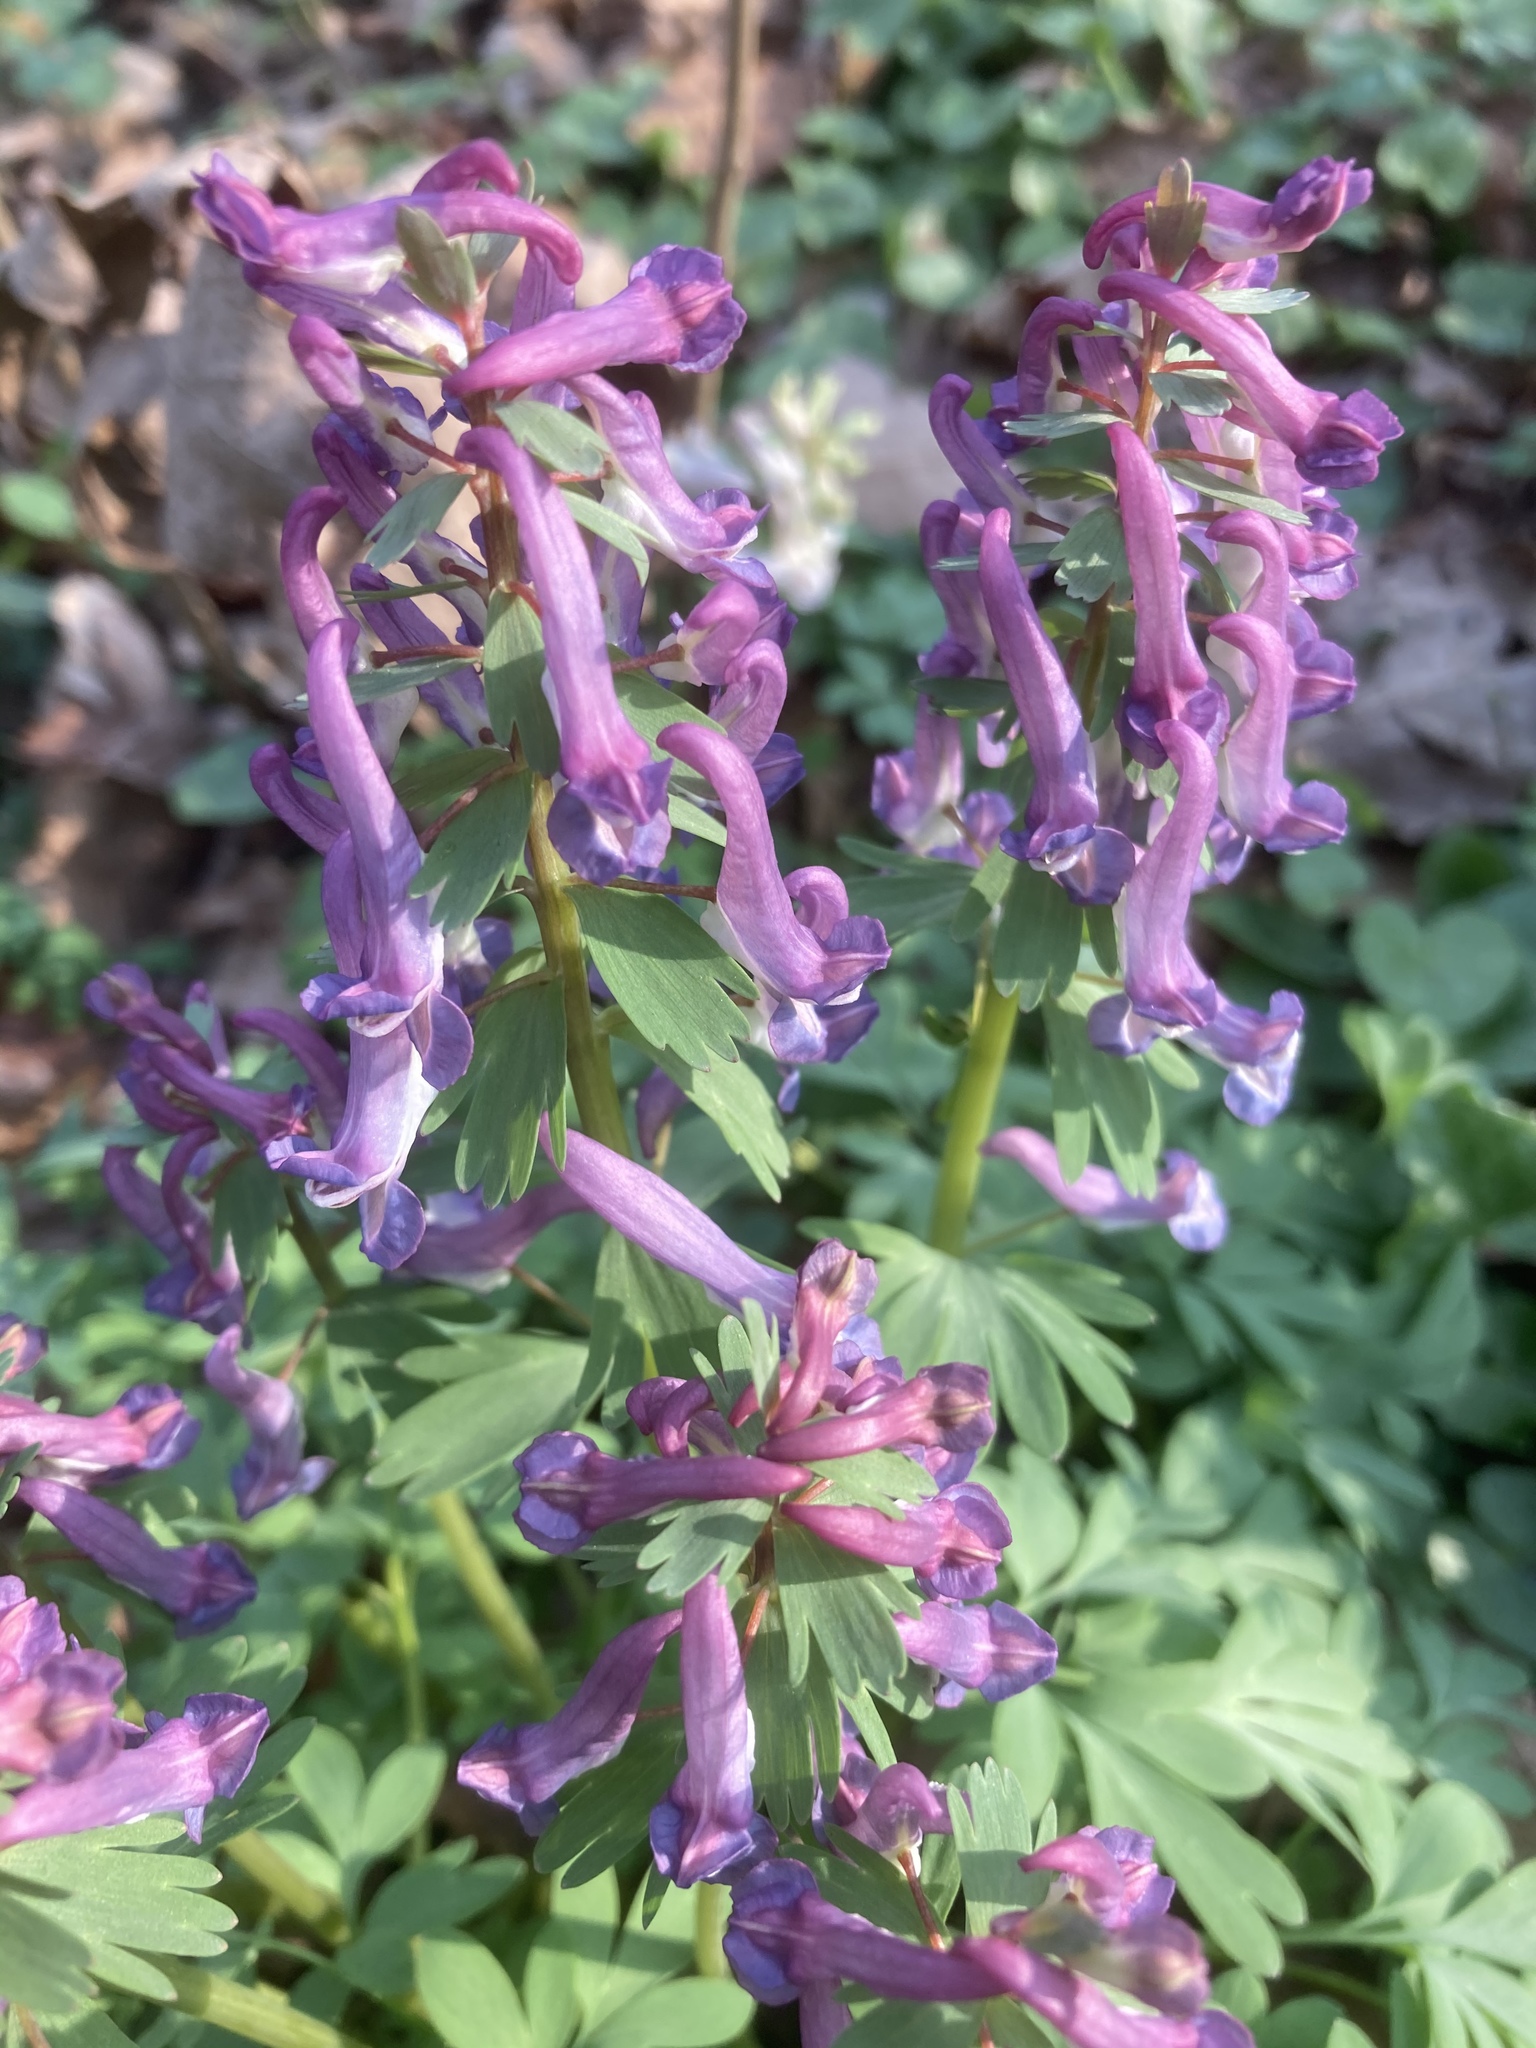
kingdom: Plantae
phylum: Tracheophyta
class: Magnoliopsida
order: Ranunculales
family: Papaveraceae
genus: Corydalis
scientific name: Corydalis solida
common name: Bird-in-a-bush
